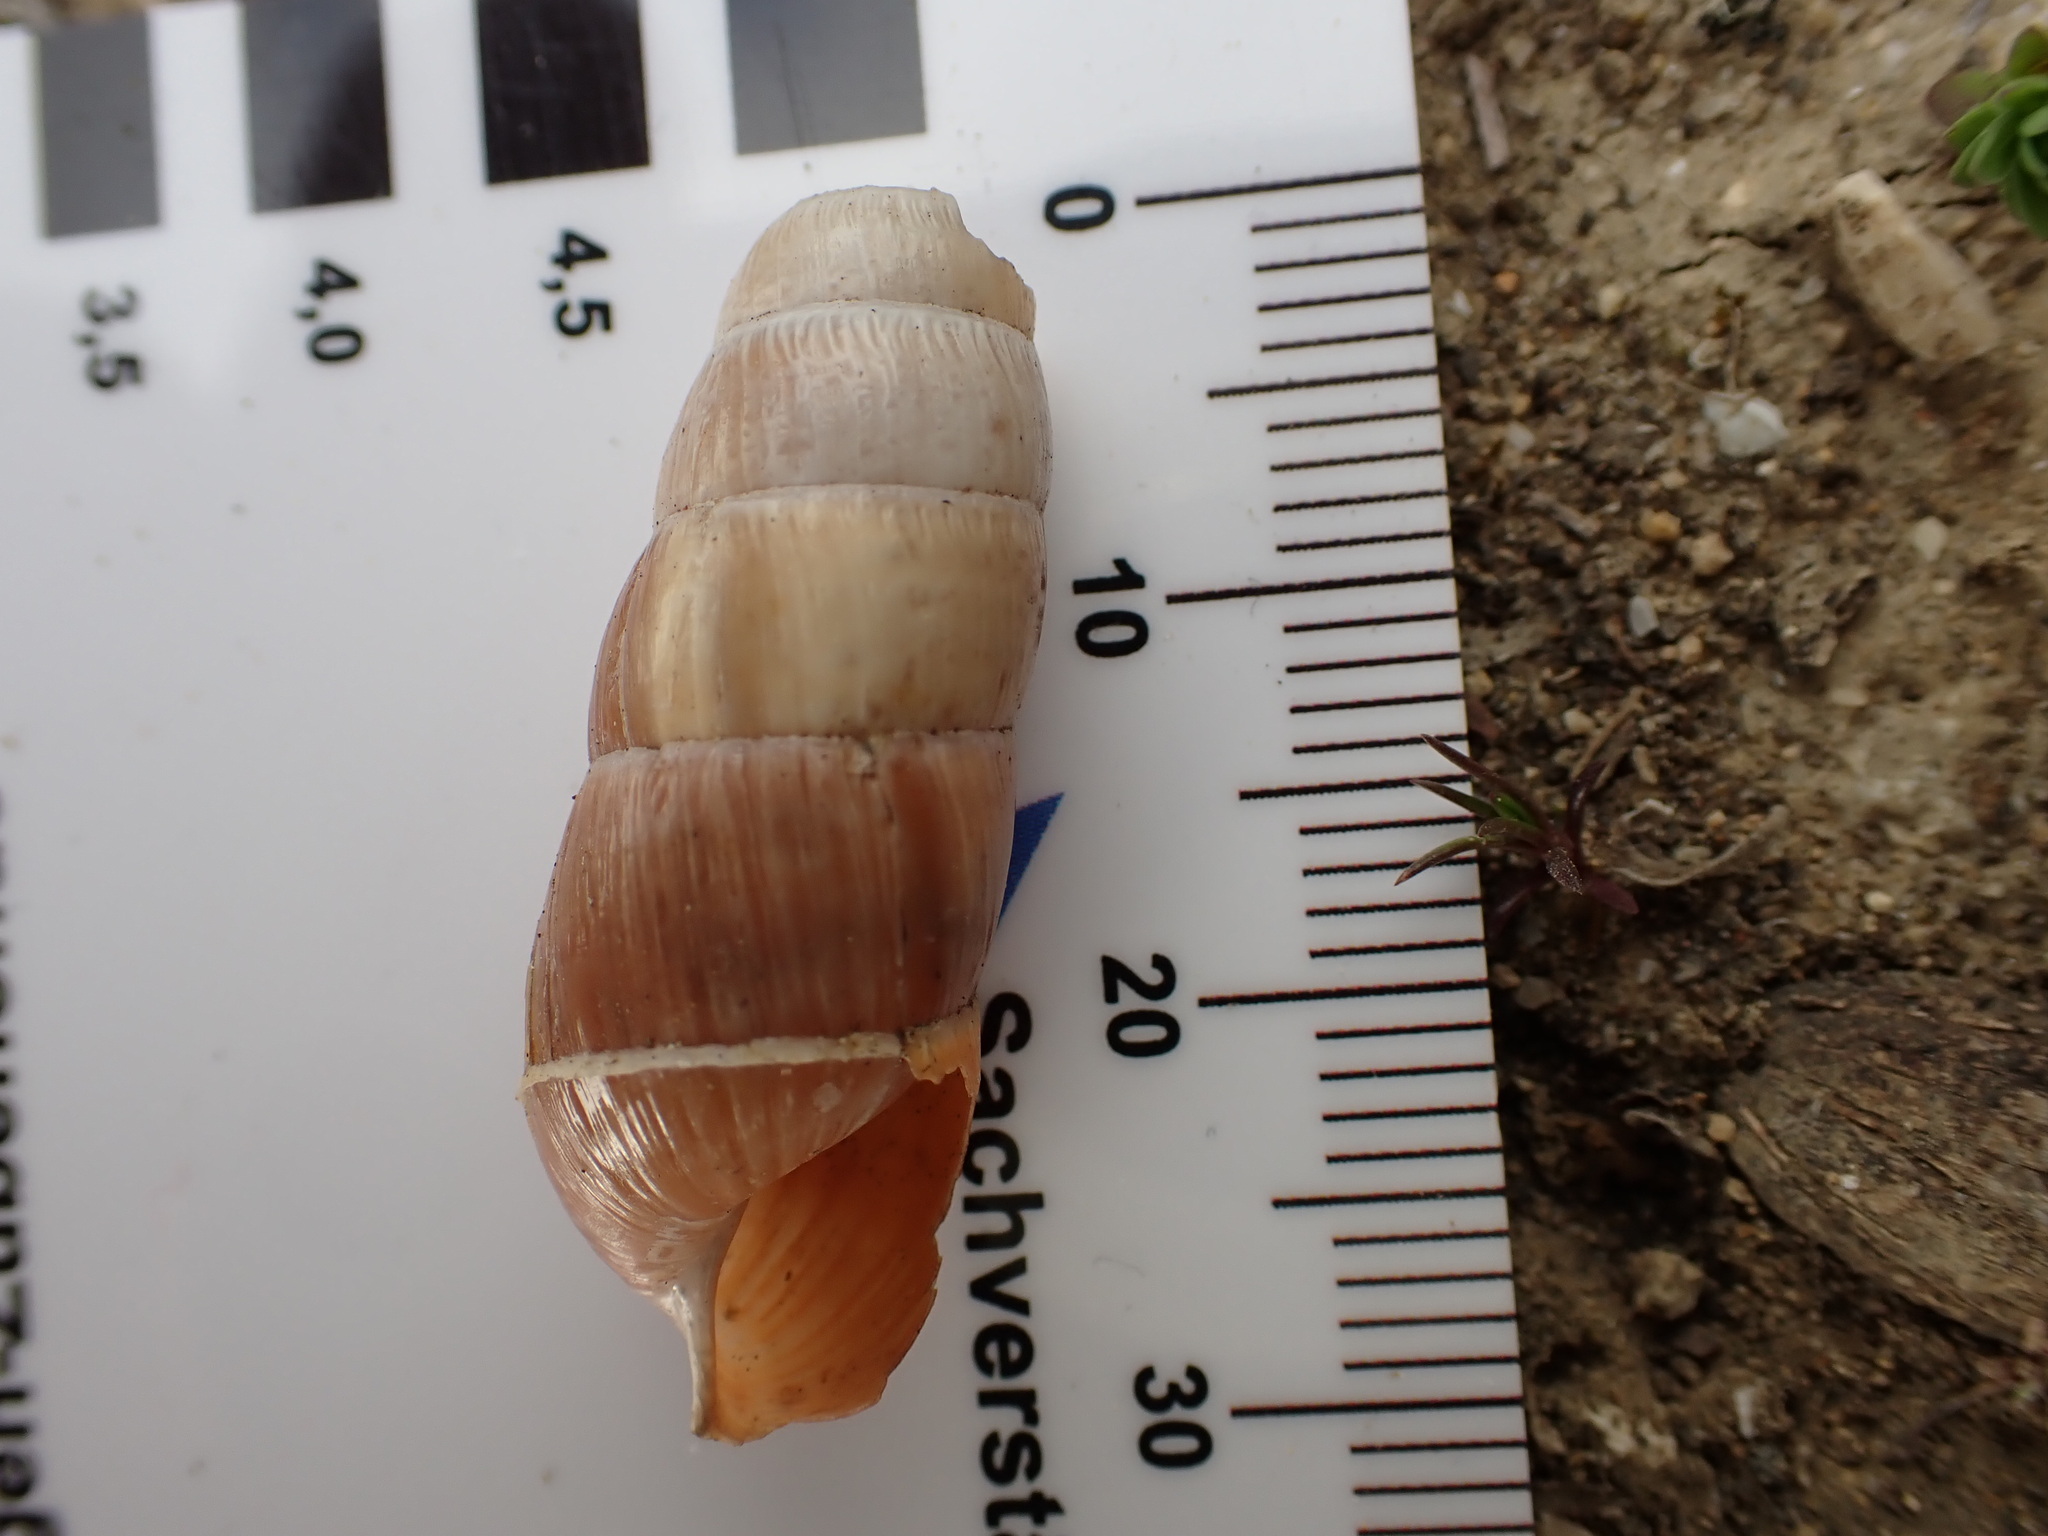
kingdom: Animalia
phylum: Mollusca
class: Gastropoda
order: Stylommatophora
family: Achatinidae
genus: Rumina
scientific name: Rumina decollata
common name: Decollate snail
